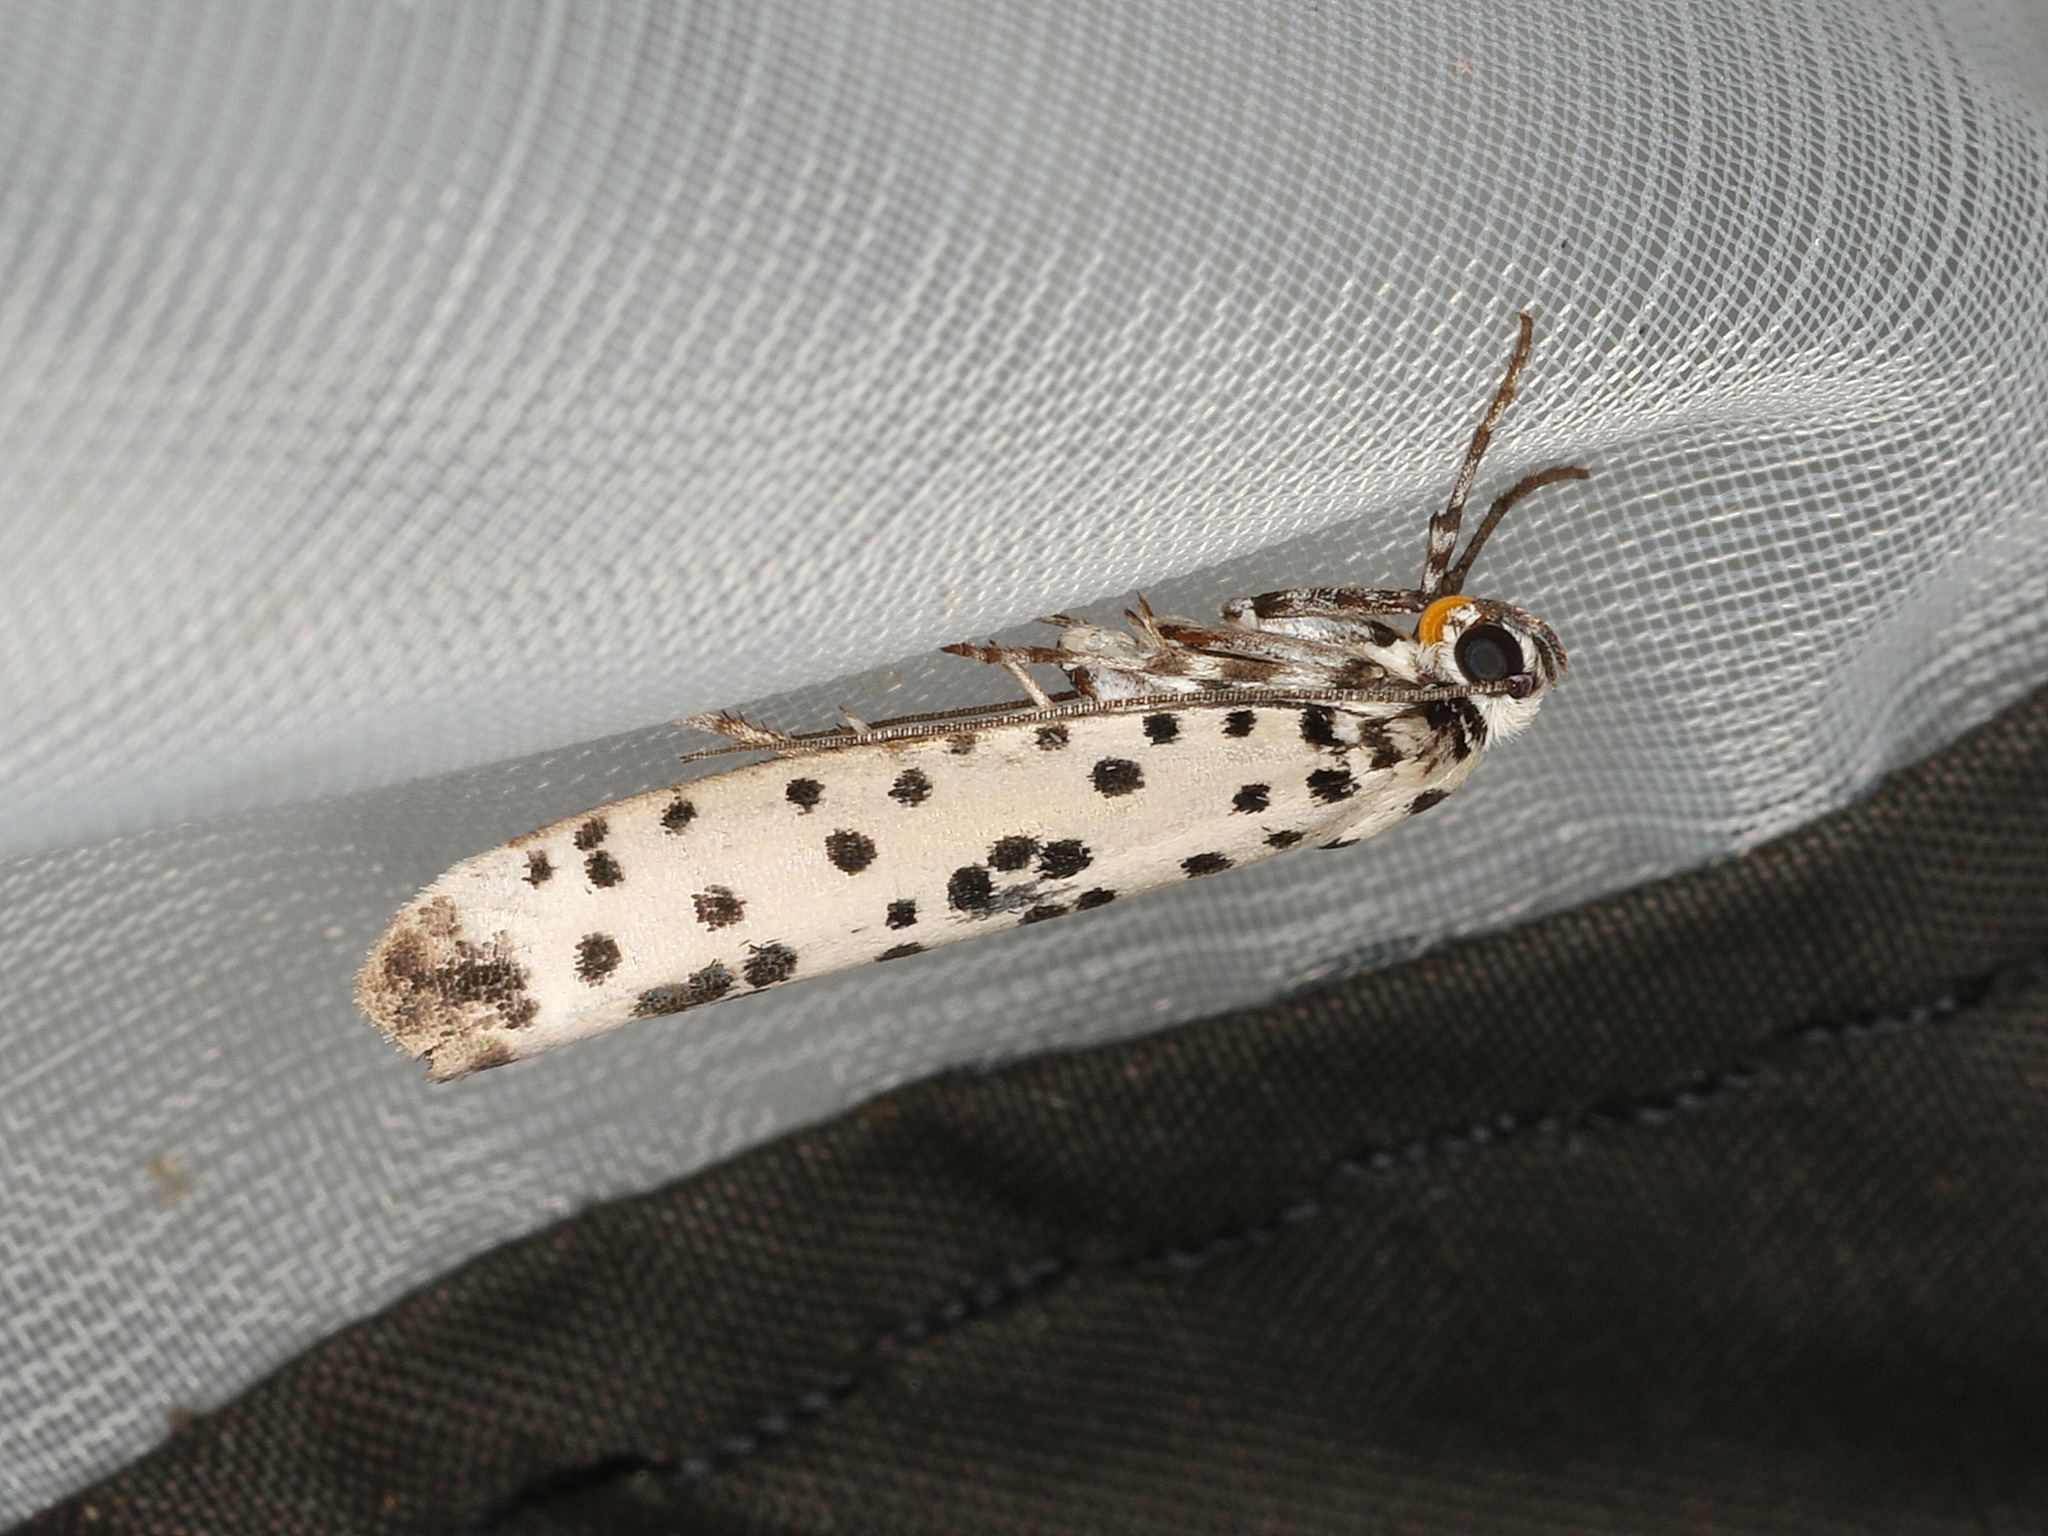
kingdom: Animalia
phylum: Arthropoda
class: Insecta
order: Lepidoptera
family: Yponomeutidae
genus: Yponomeuta
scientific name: Yponomeuta pustulellus
